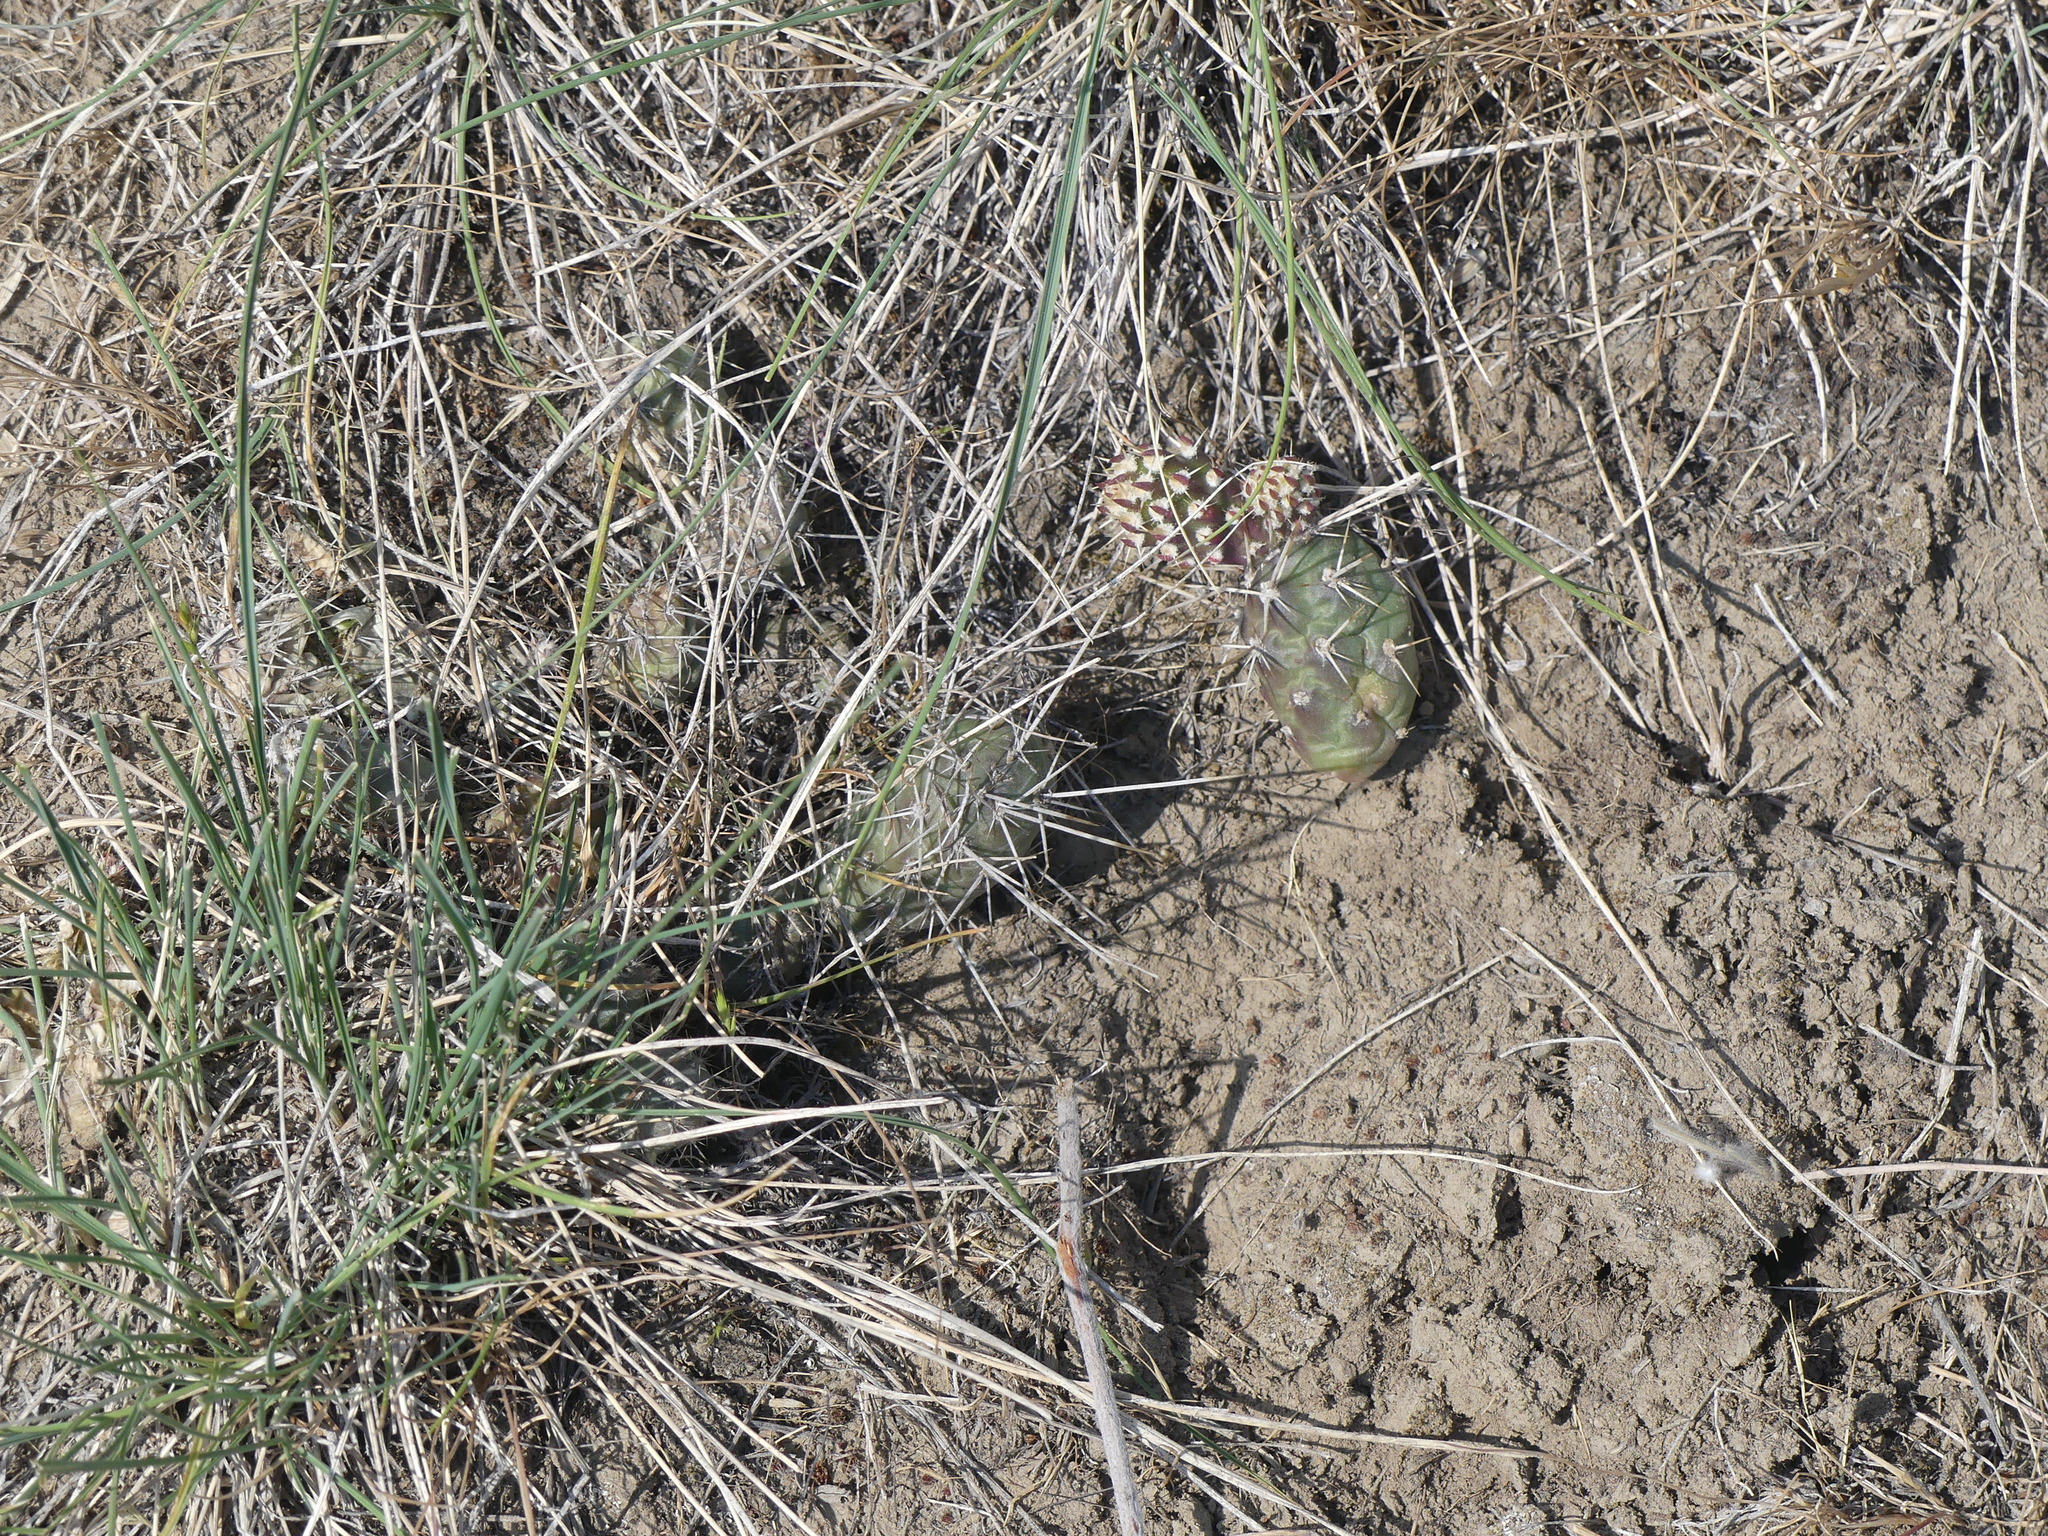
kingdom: Plantae
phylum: Tracheophyta
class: Magnoliopsida
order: Caryophyllales
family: Cactaceae
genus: Opuntia
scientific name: Opuntia fragilis
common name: Brittle cactus
